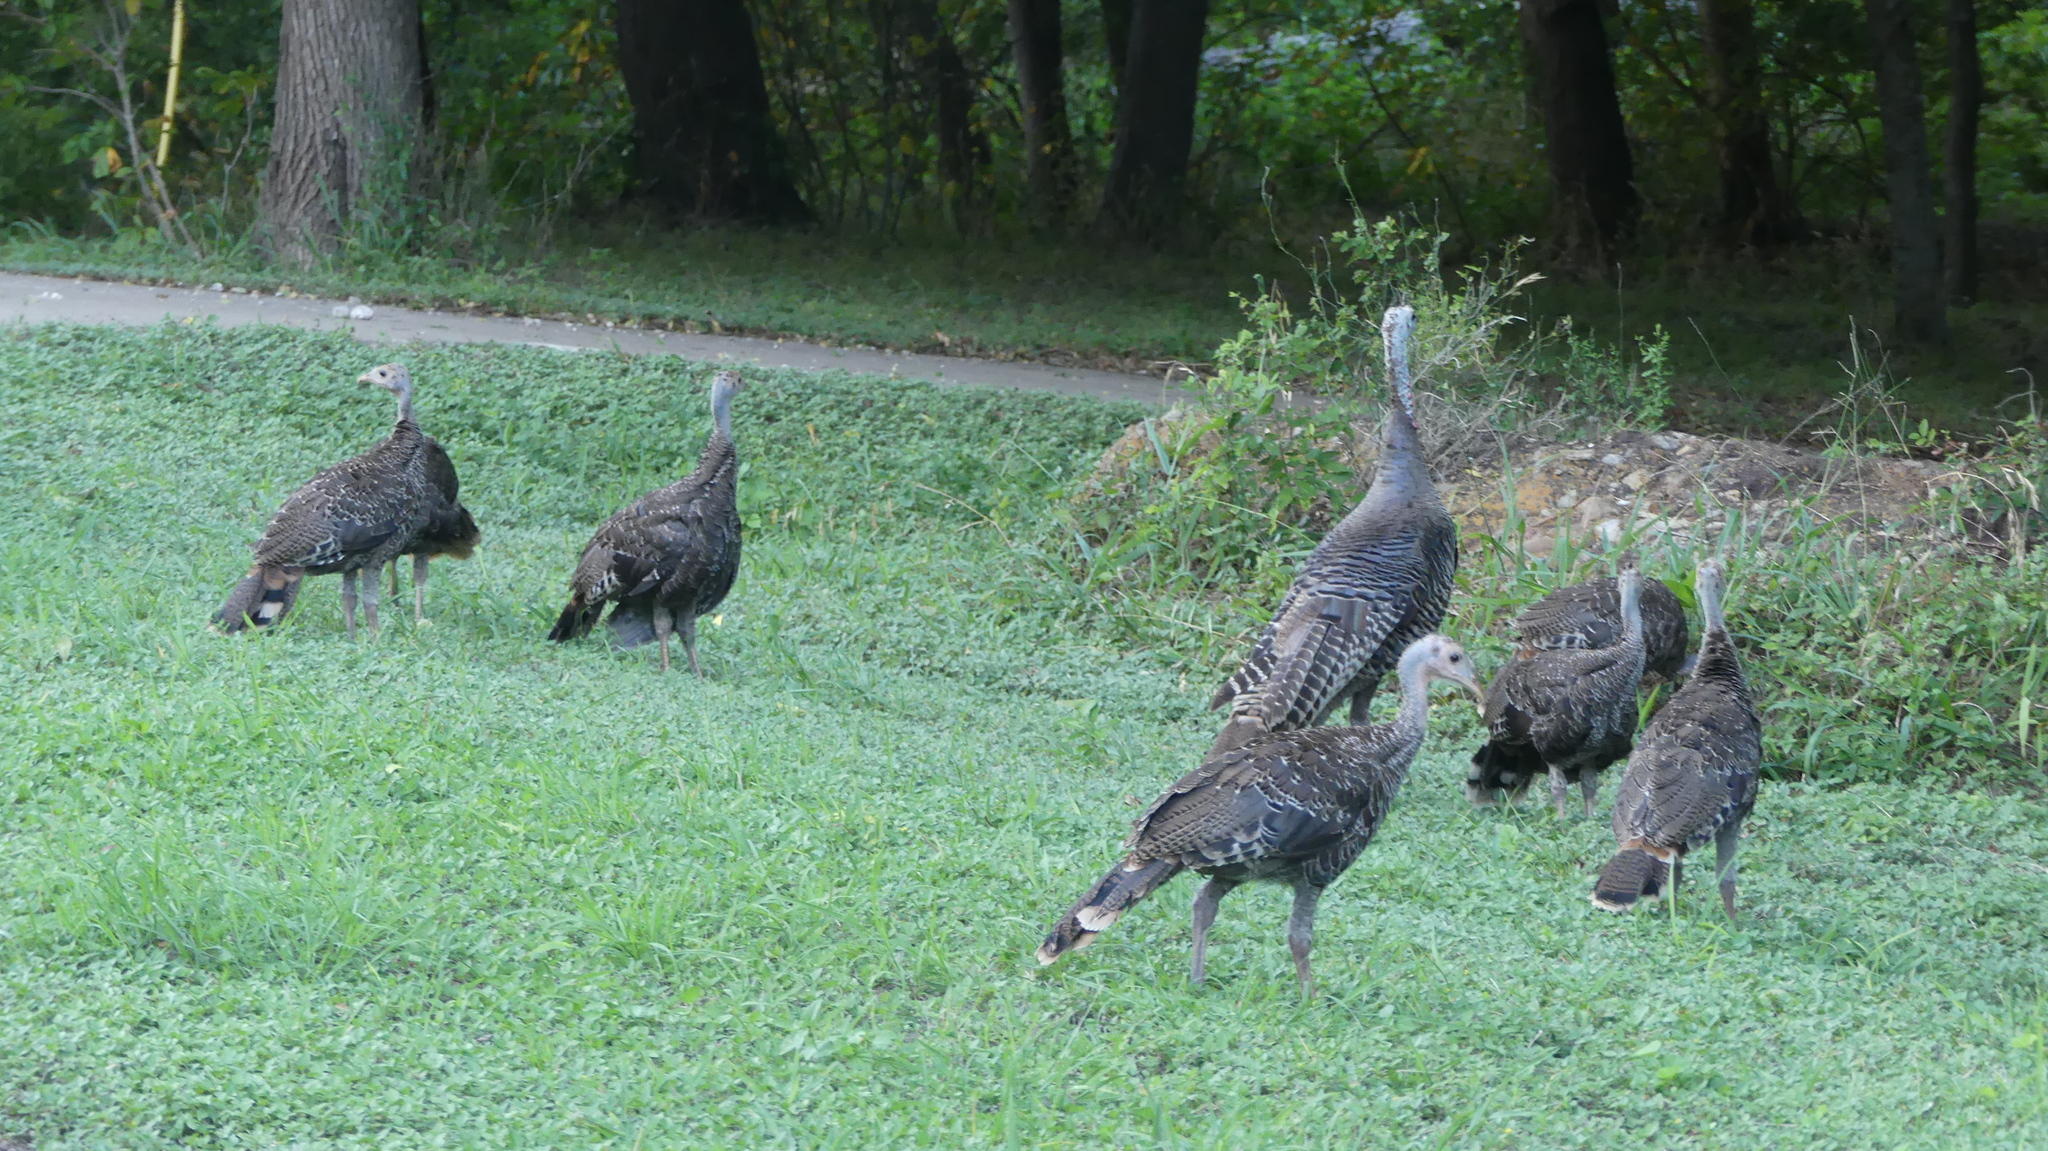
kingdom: Animalia
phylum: Chordata
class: Aves
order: Galliformes
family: Phasianidae
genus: Meleagris
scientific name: Meleagris gallopavo
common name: Wild turkey
